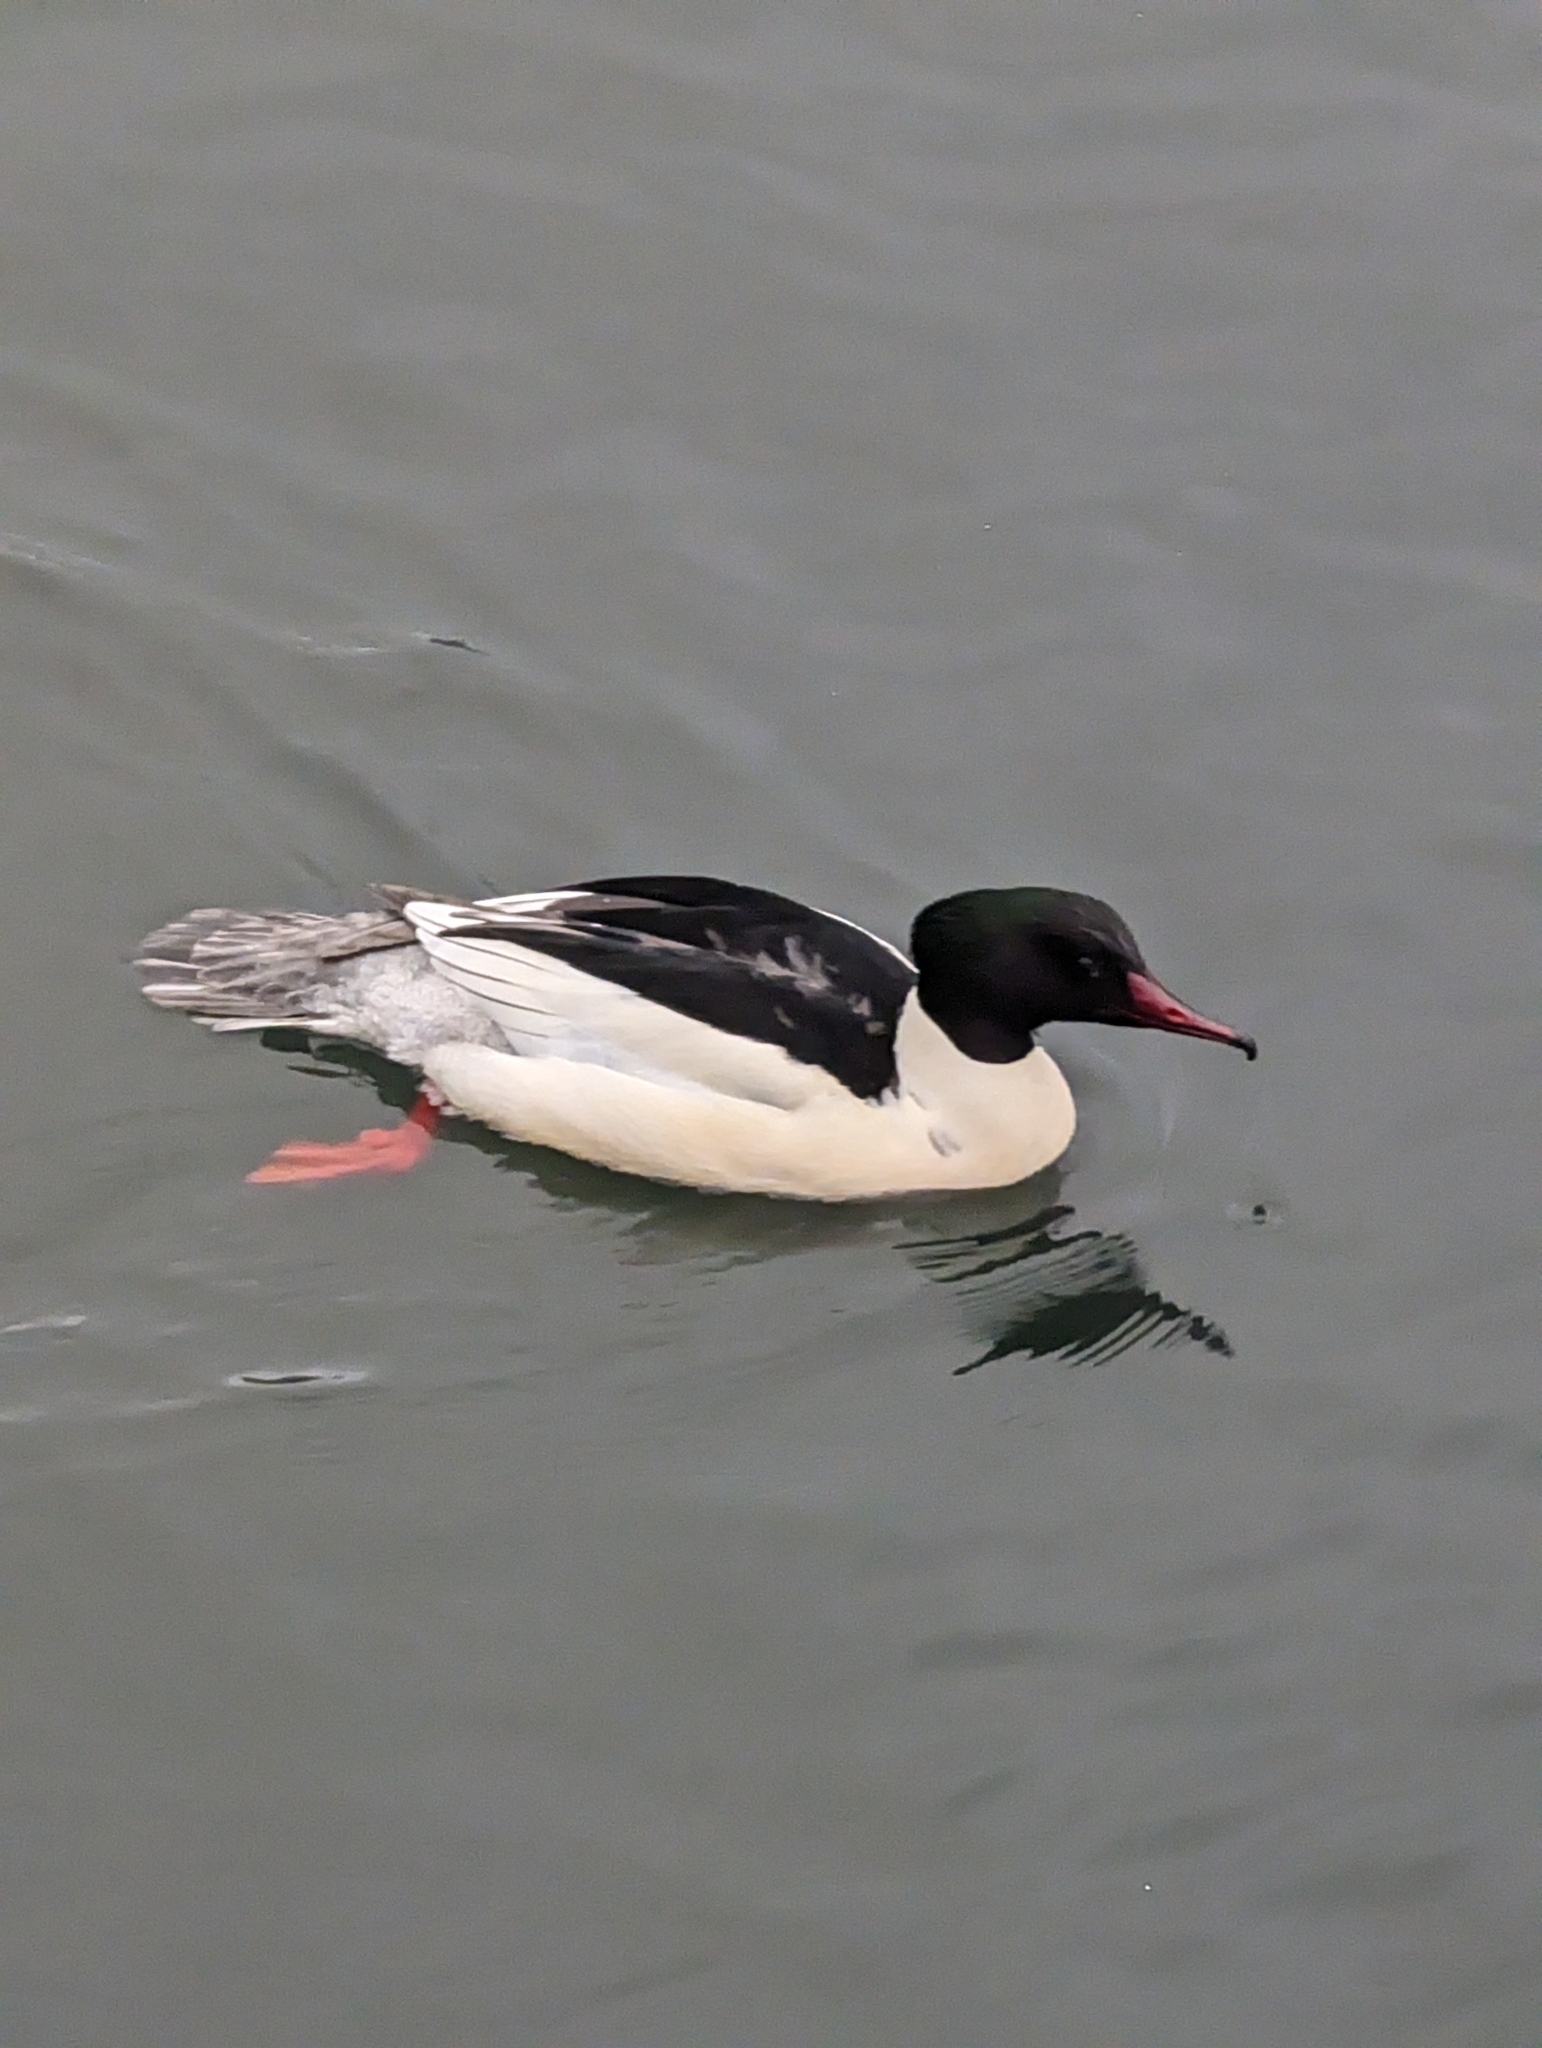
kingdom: Animalia
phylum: Chordata
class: Aves
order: Anseriformes
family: Anatidae
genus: Mergus
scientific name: Mergus merganser
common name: Common merganser
